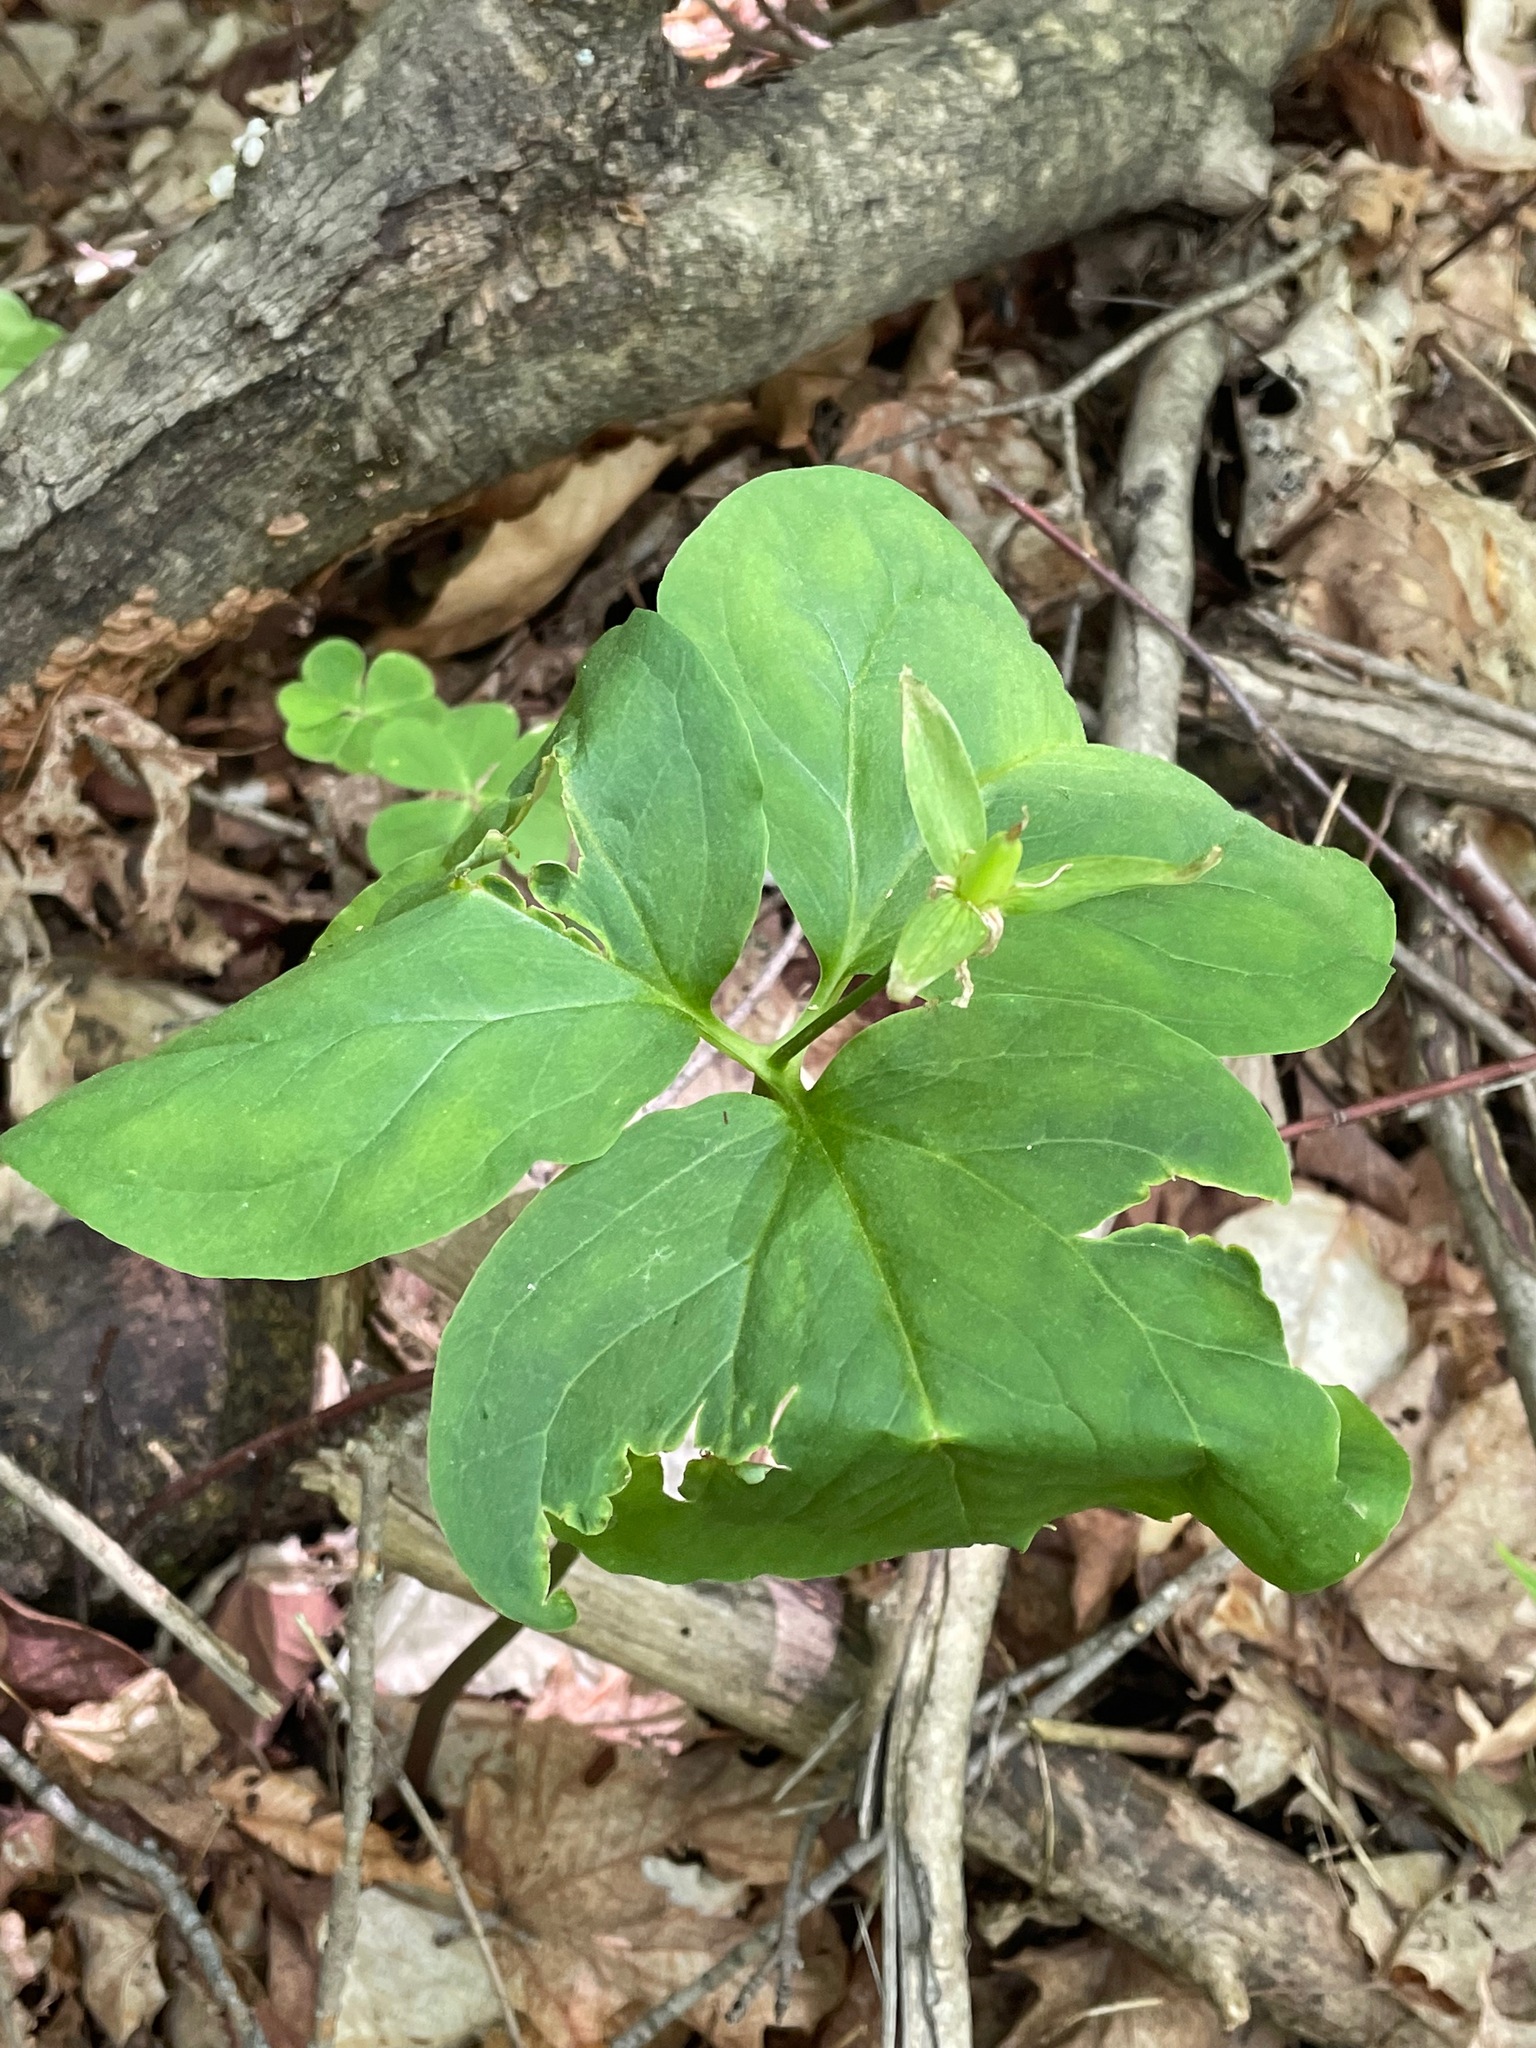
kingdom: Plantae
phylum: Tracheophyta
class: Liliopsida
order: Liliales
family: Melanthiaceae
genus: Trillium
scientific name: Trillium undulatum
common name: Paint trillium
